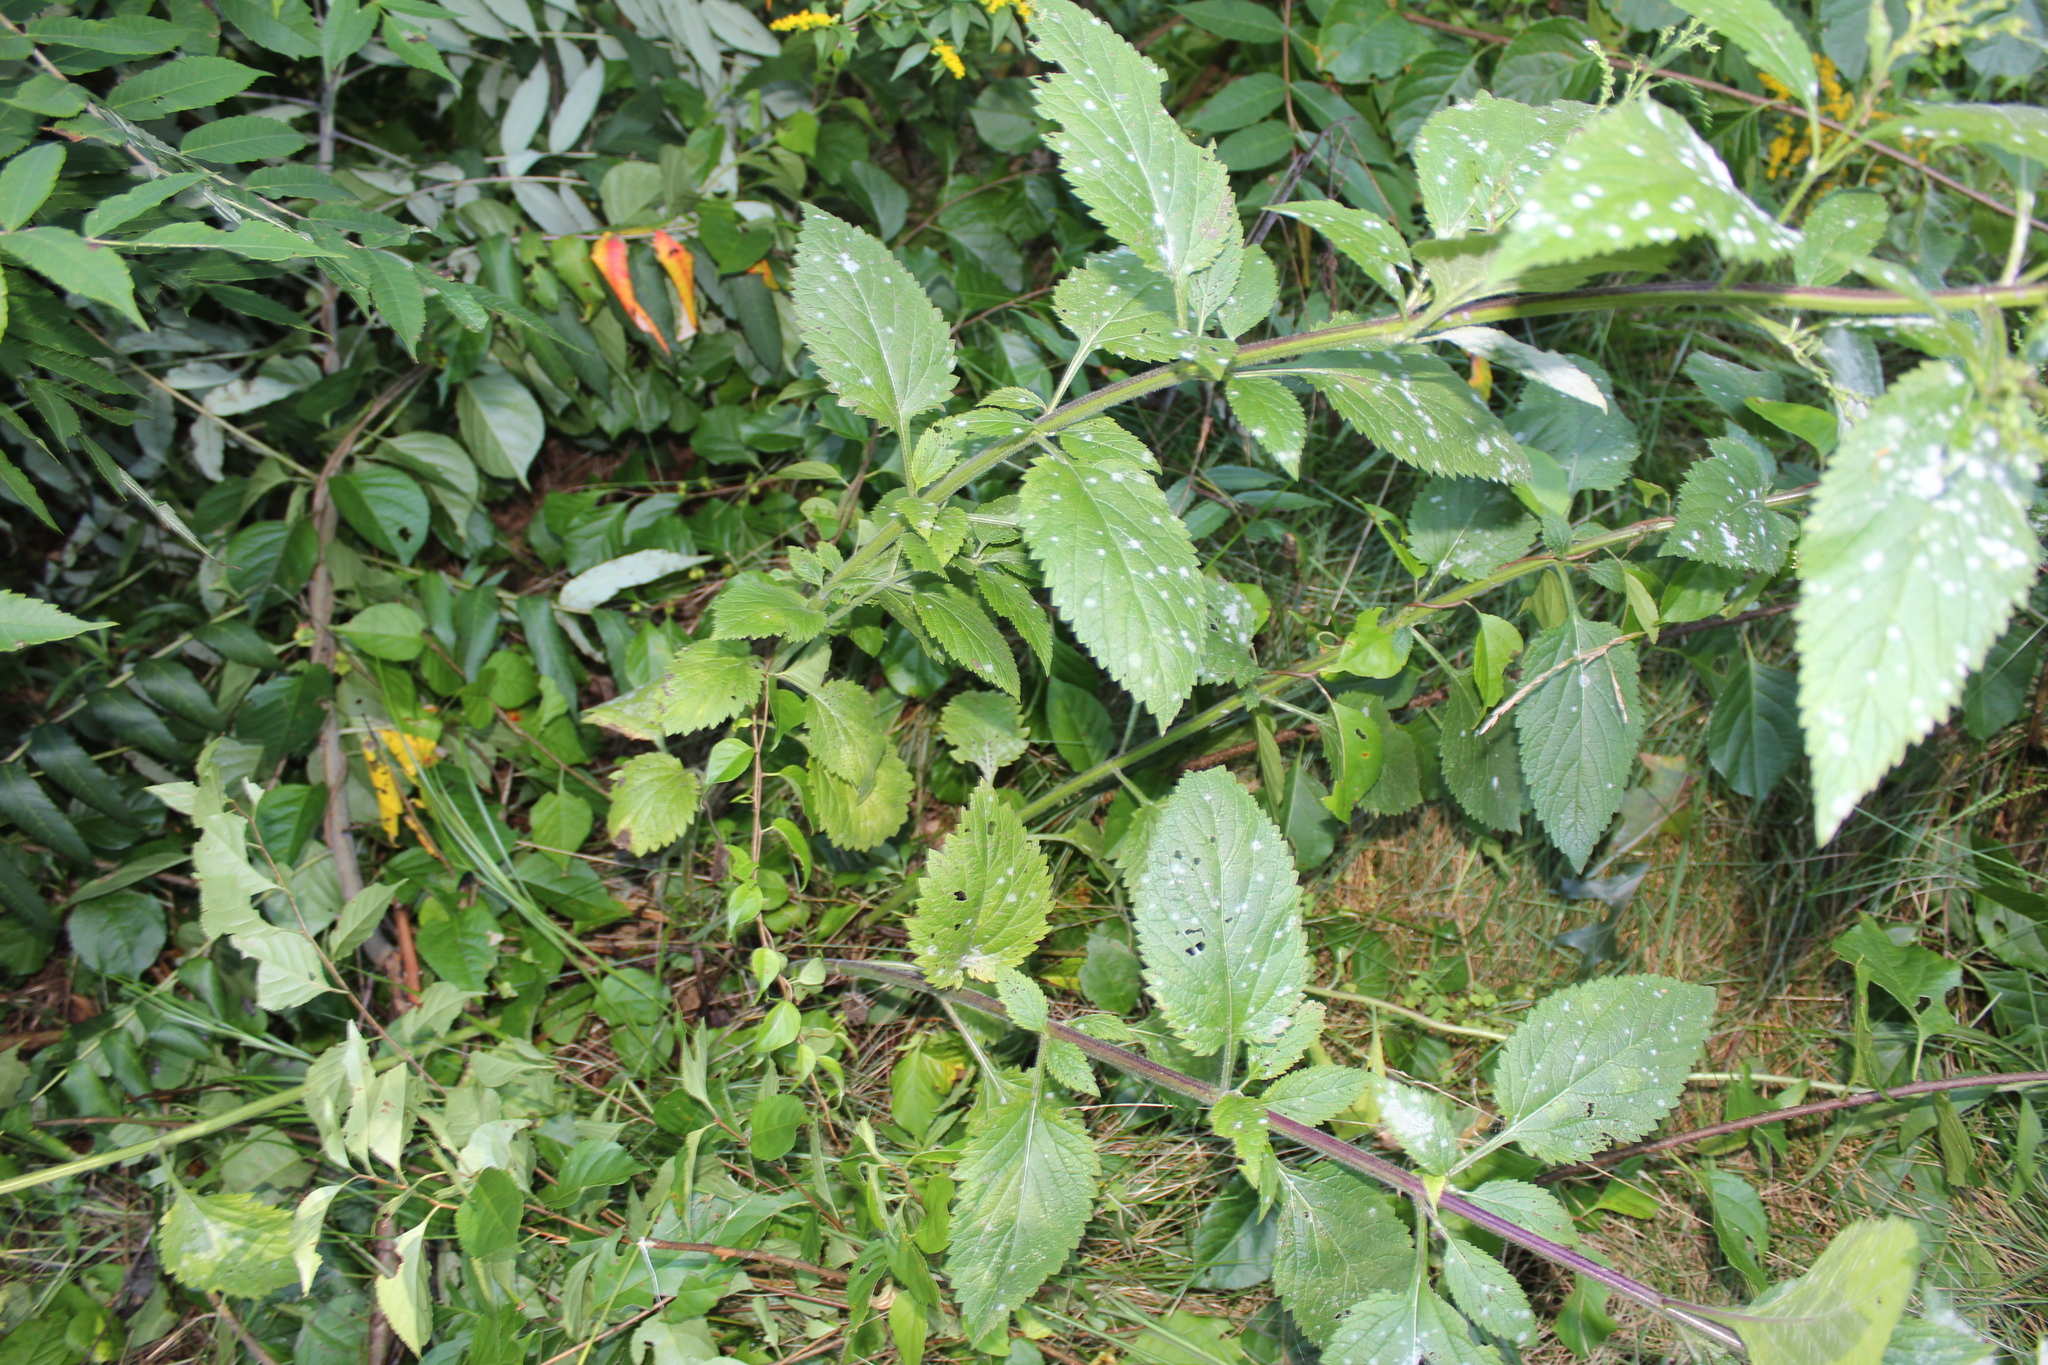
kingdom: Plantae
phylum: Tracheophyta
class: Magnoliopsida
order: Lamiales
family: Verbenaceae
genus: Verbena
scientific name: Verbena urticifolia
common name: Nettle-leaved vervain
